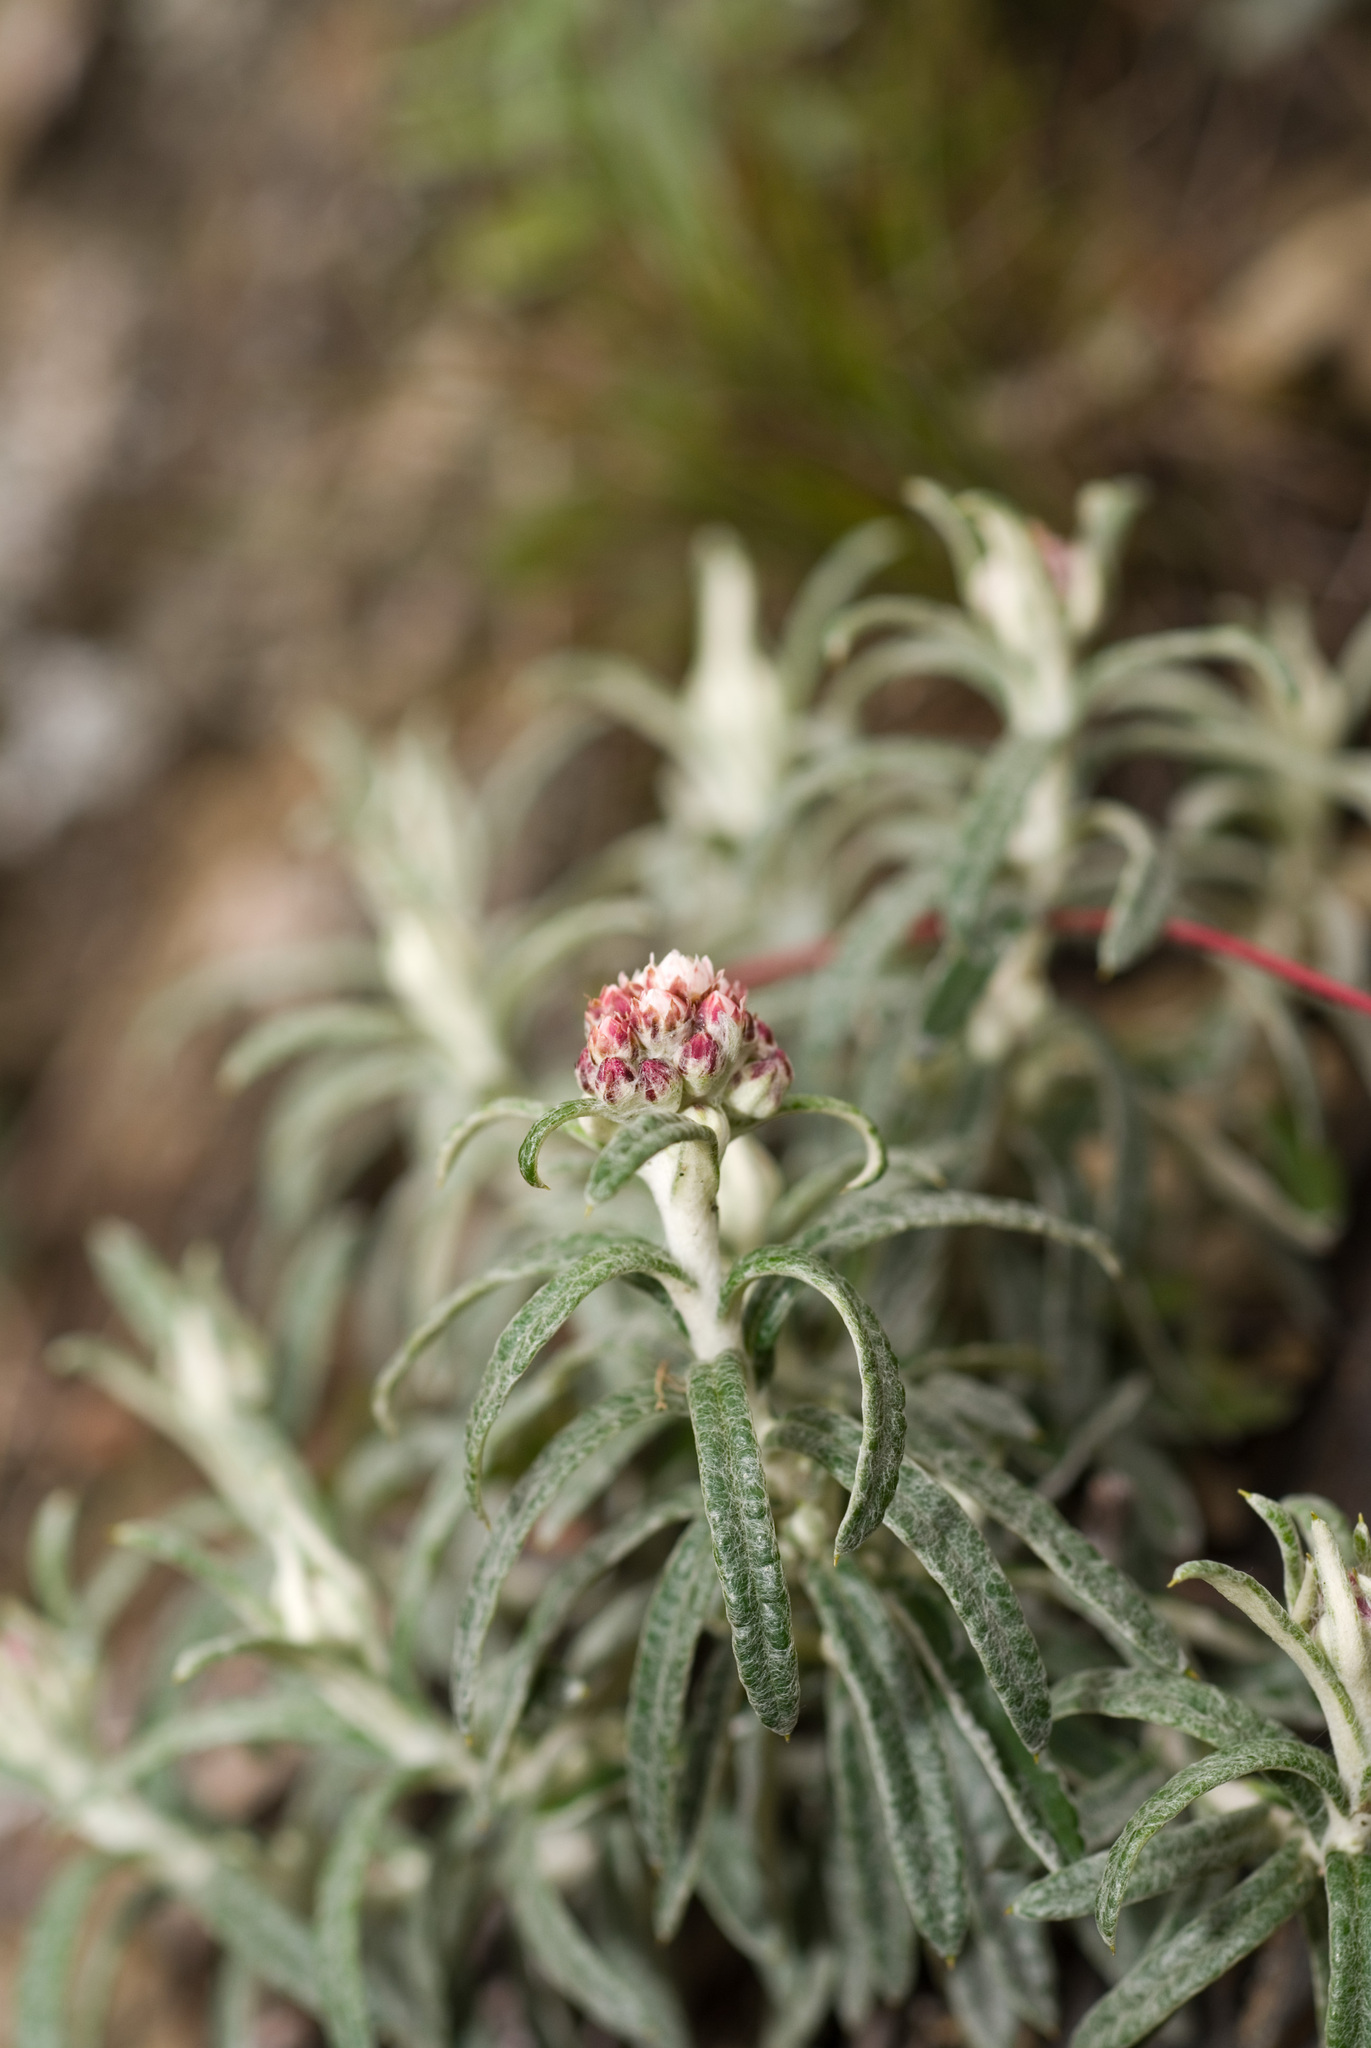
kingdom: Plantae
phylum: Tracheophyta
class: Magnoliopsida
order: Asterales
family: Asteraceae
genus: Anaphalis
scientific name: Anaphalis morrisonicola
